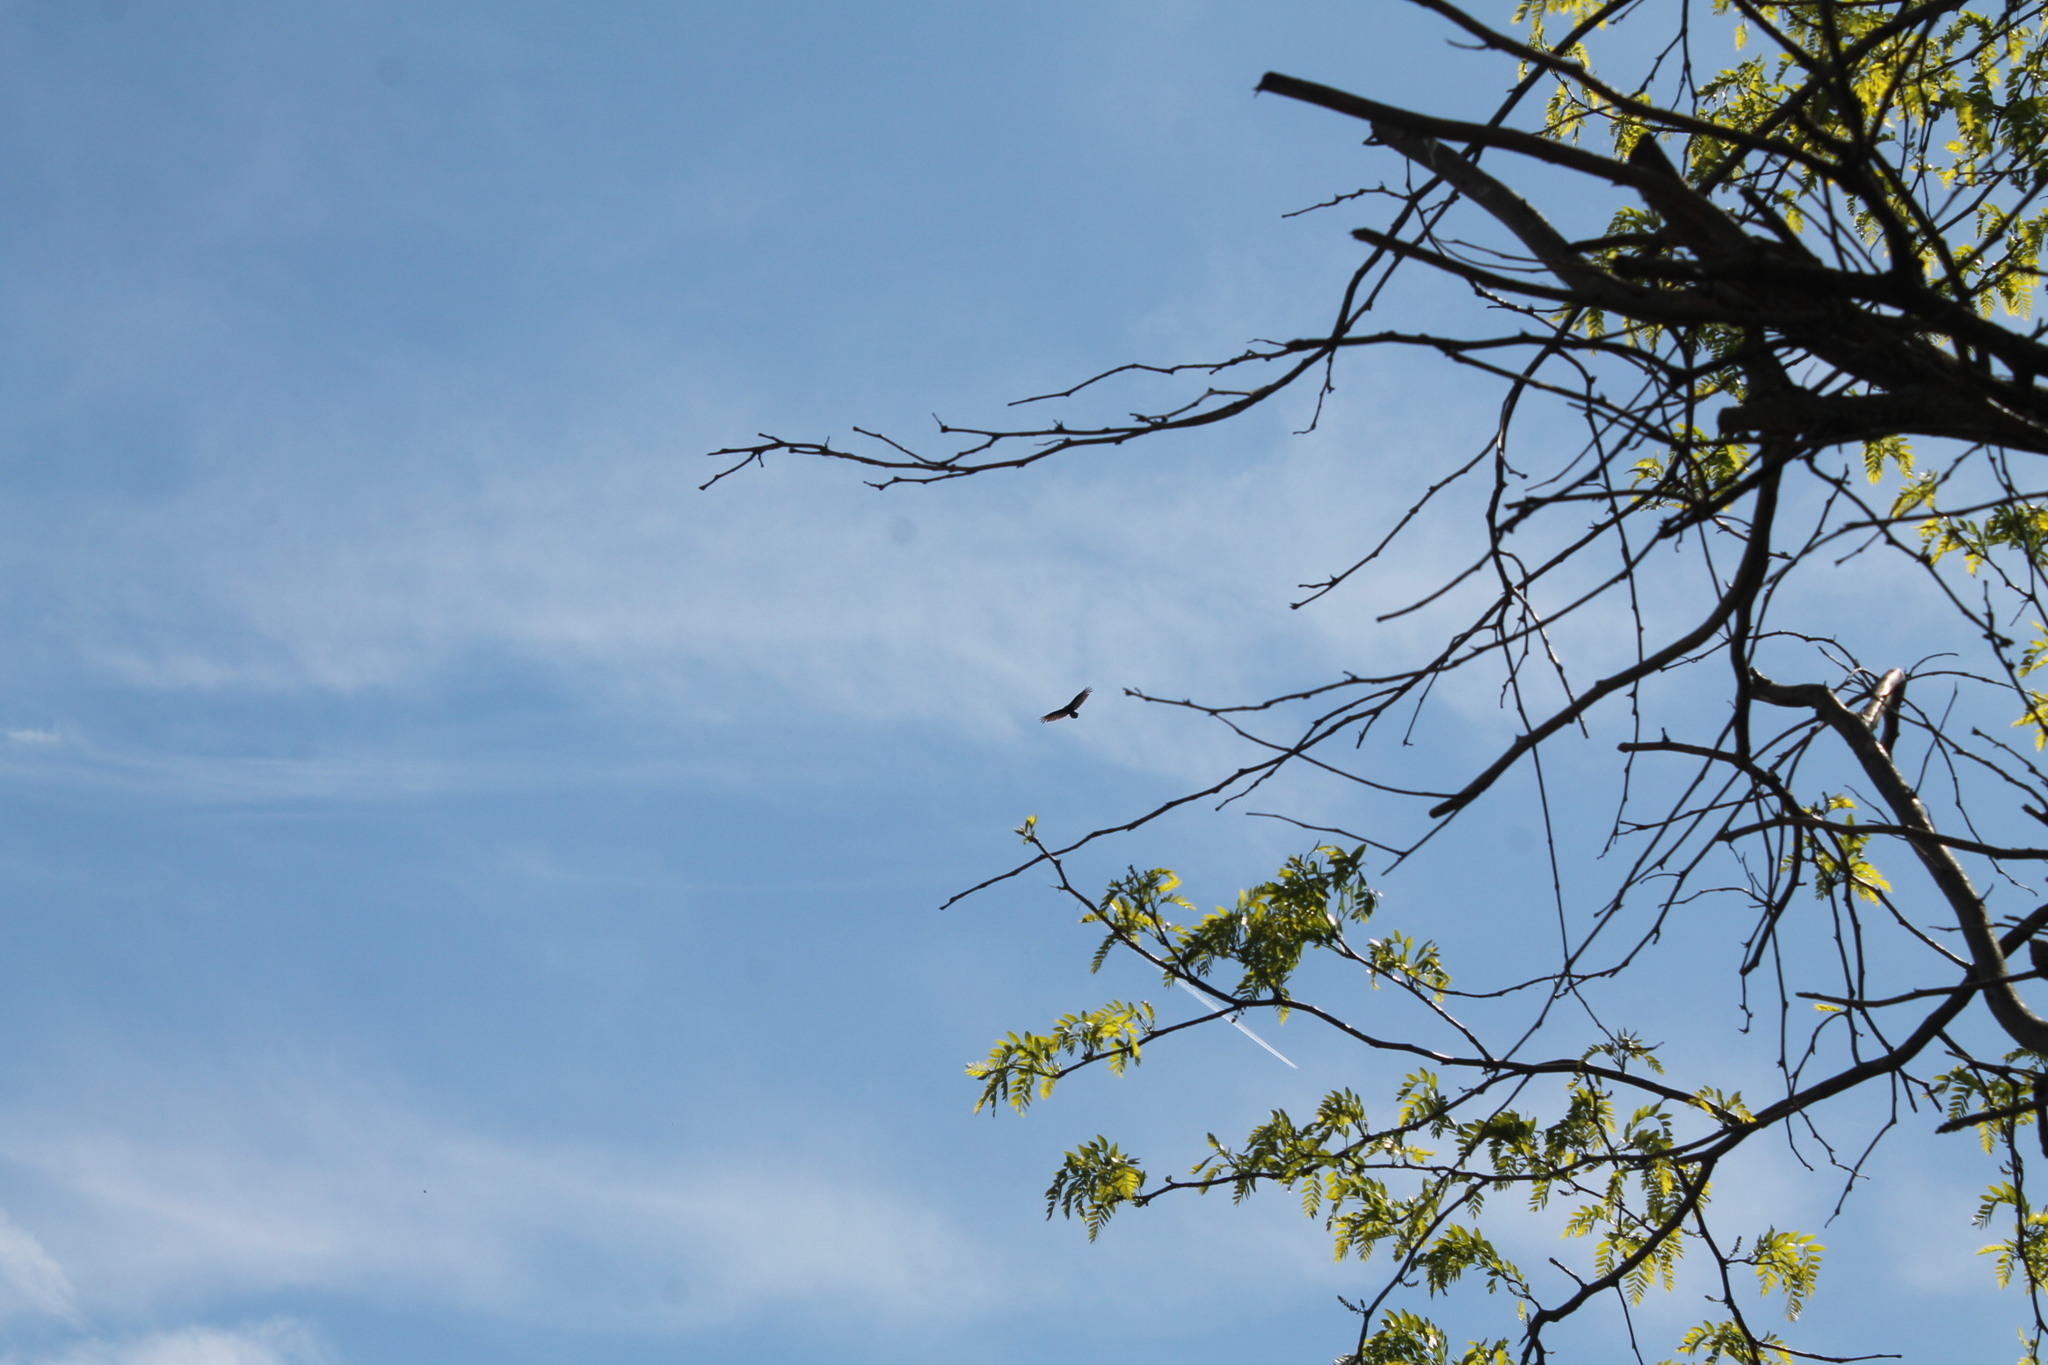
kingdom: Animalia
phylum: Chordata
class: Aves
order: Accipitriformes
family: Cathartidae
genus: Cathartes
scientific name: Cathartes aura
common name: Turkey vulture
